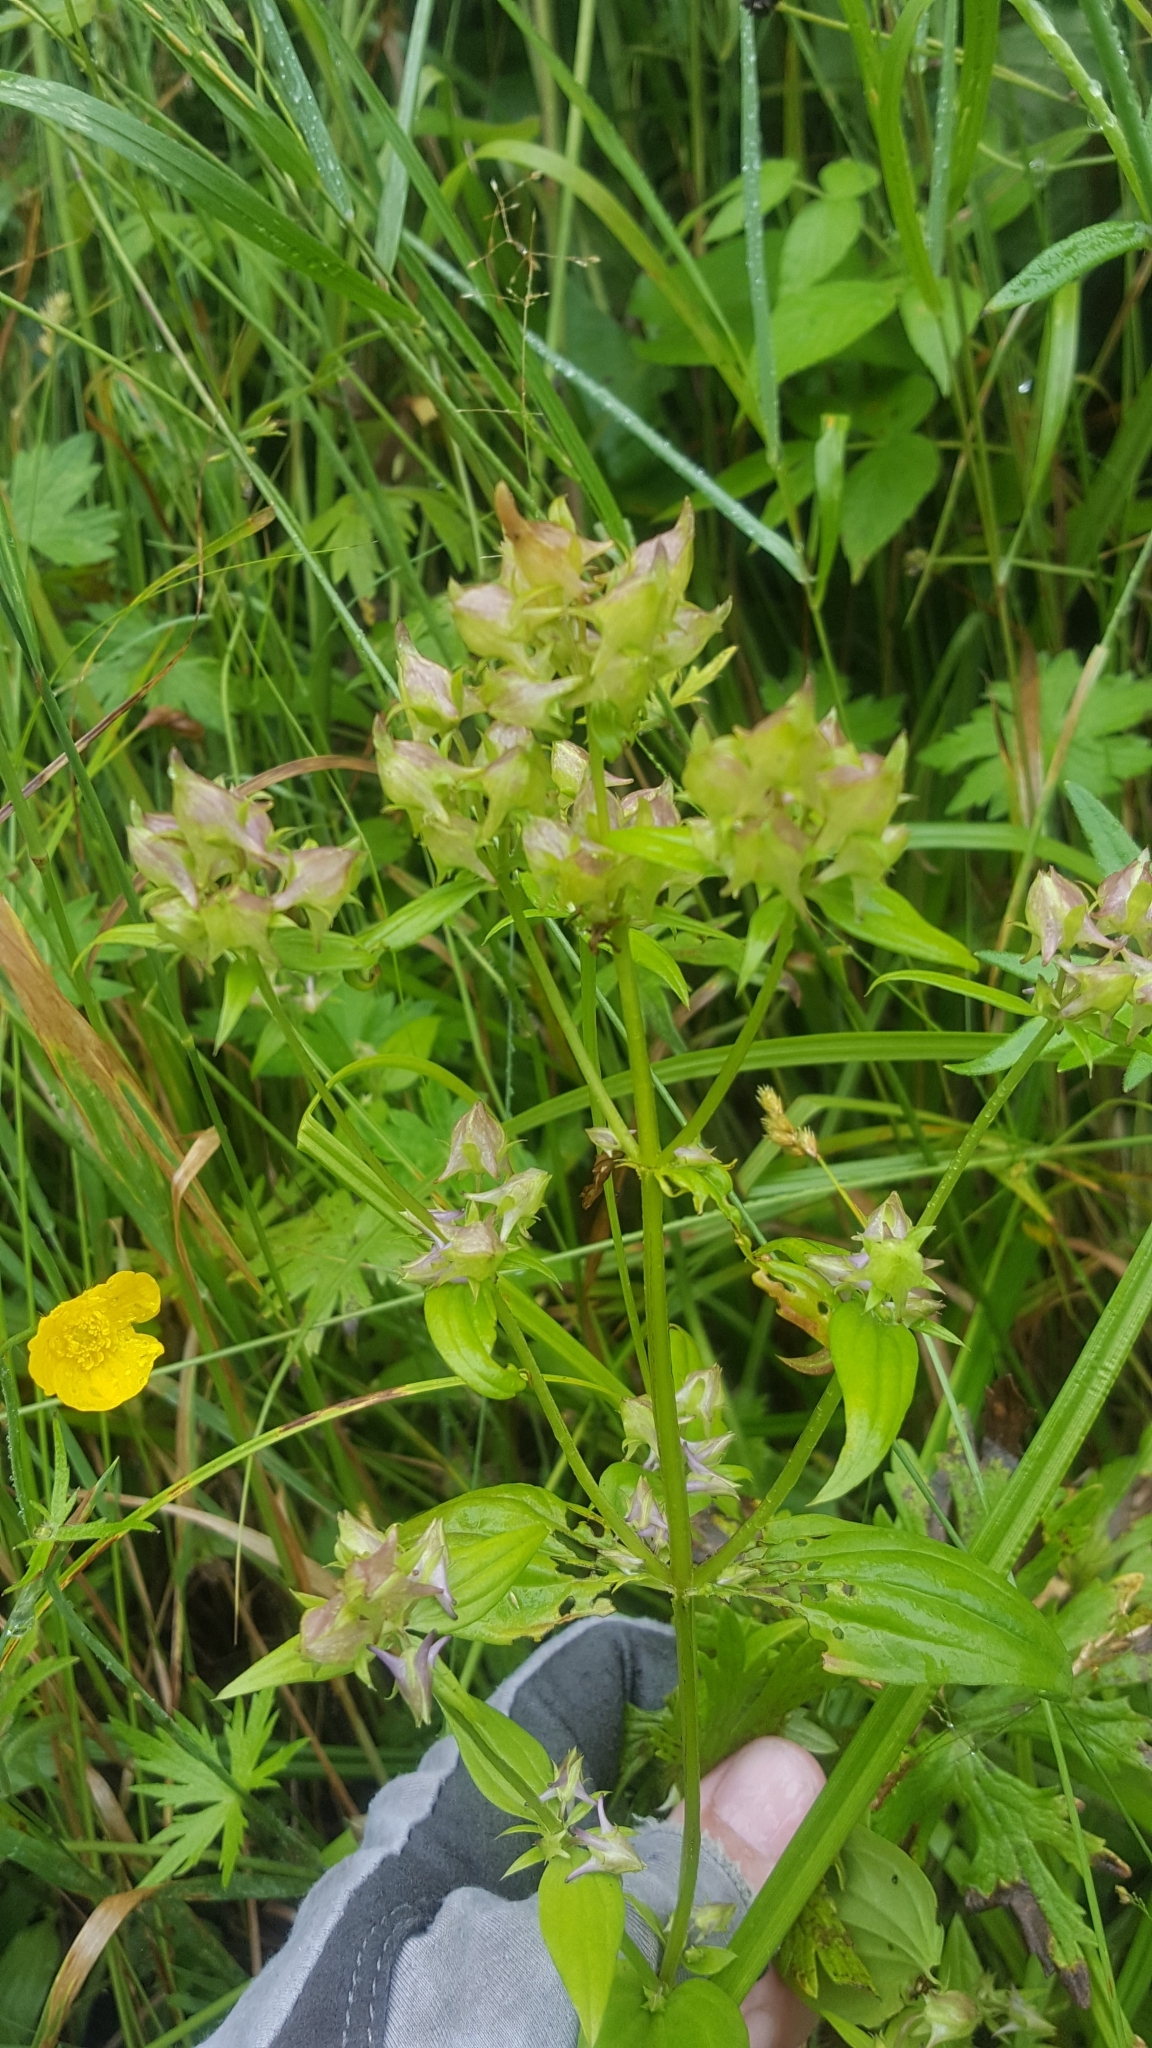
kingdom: Plantae
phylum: Tracheophyta
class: Magnoliopsida
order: Gentianales
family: Gentianaceae
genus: Halenia
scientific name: Halenia deflexa
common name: American spurred gentian
